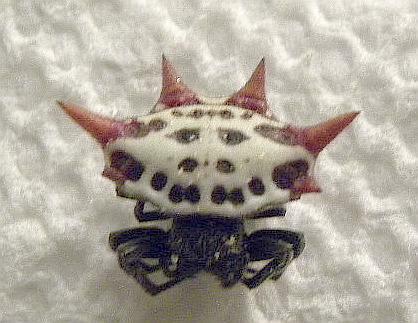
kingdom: Animalia
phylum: Arthropoda
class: Arachnida
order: Araneae
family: Araneidae
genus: Gasteracantha
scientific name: Gasteracantha cancriformis
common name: Orb weavers
